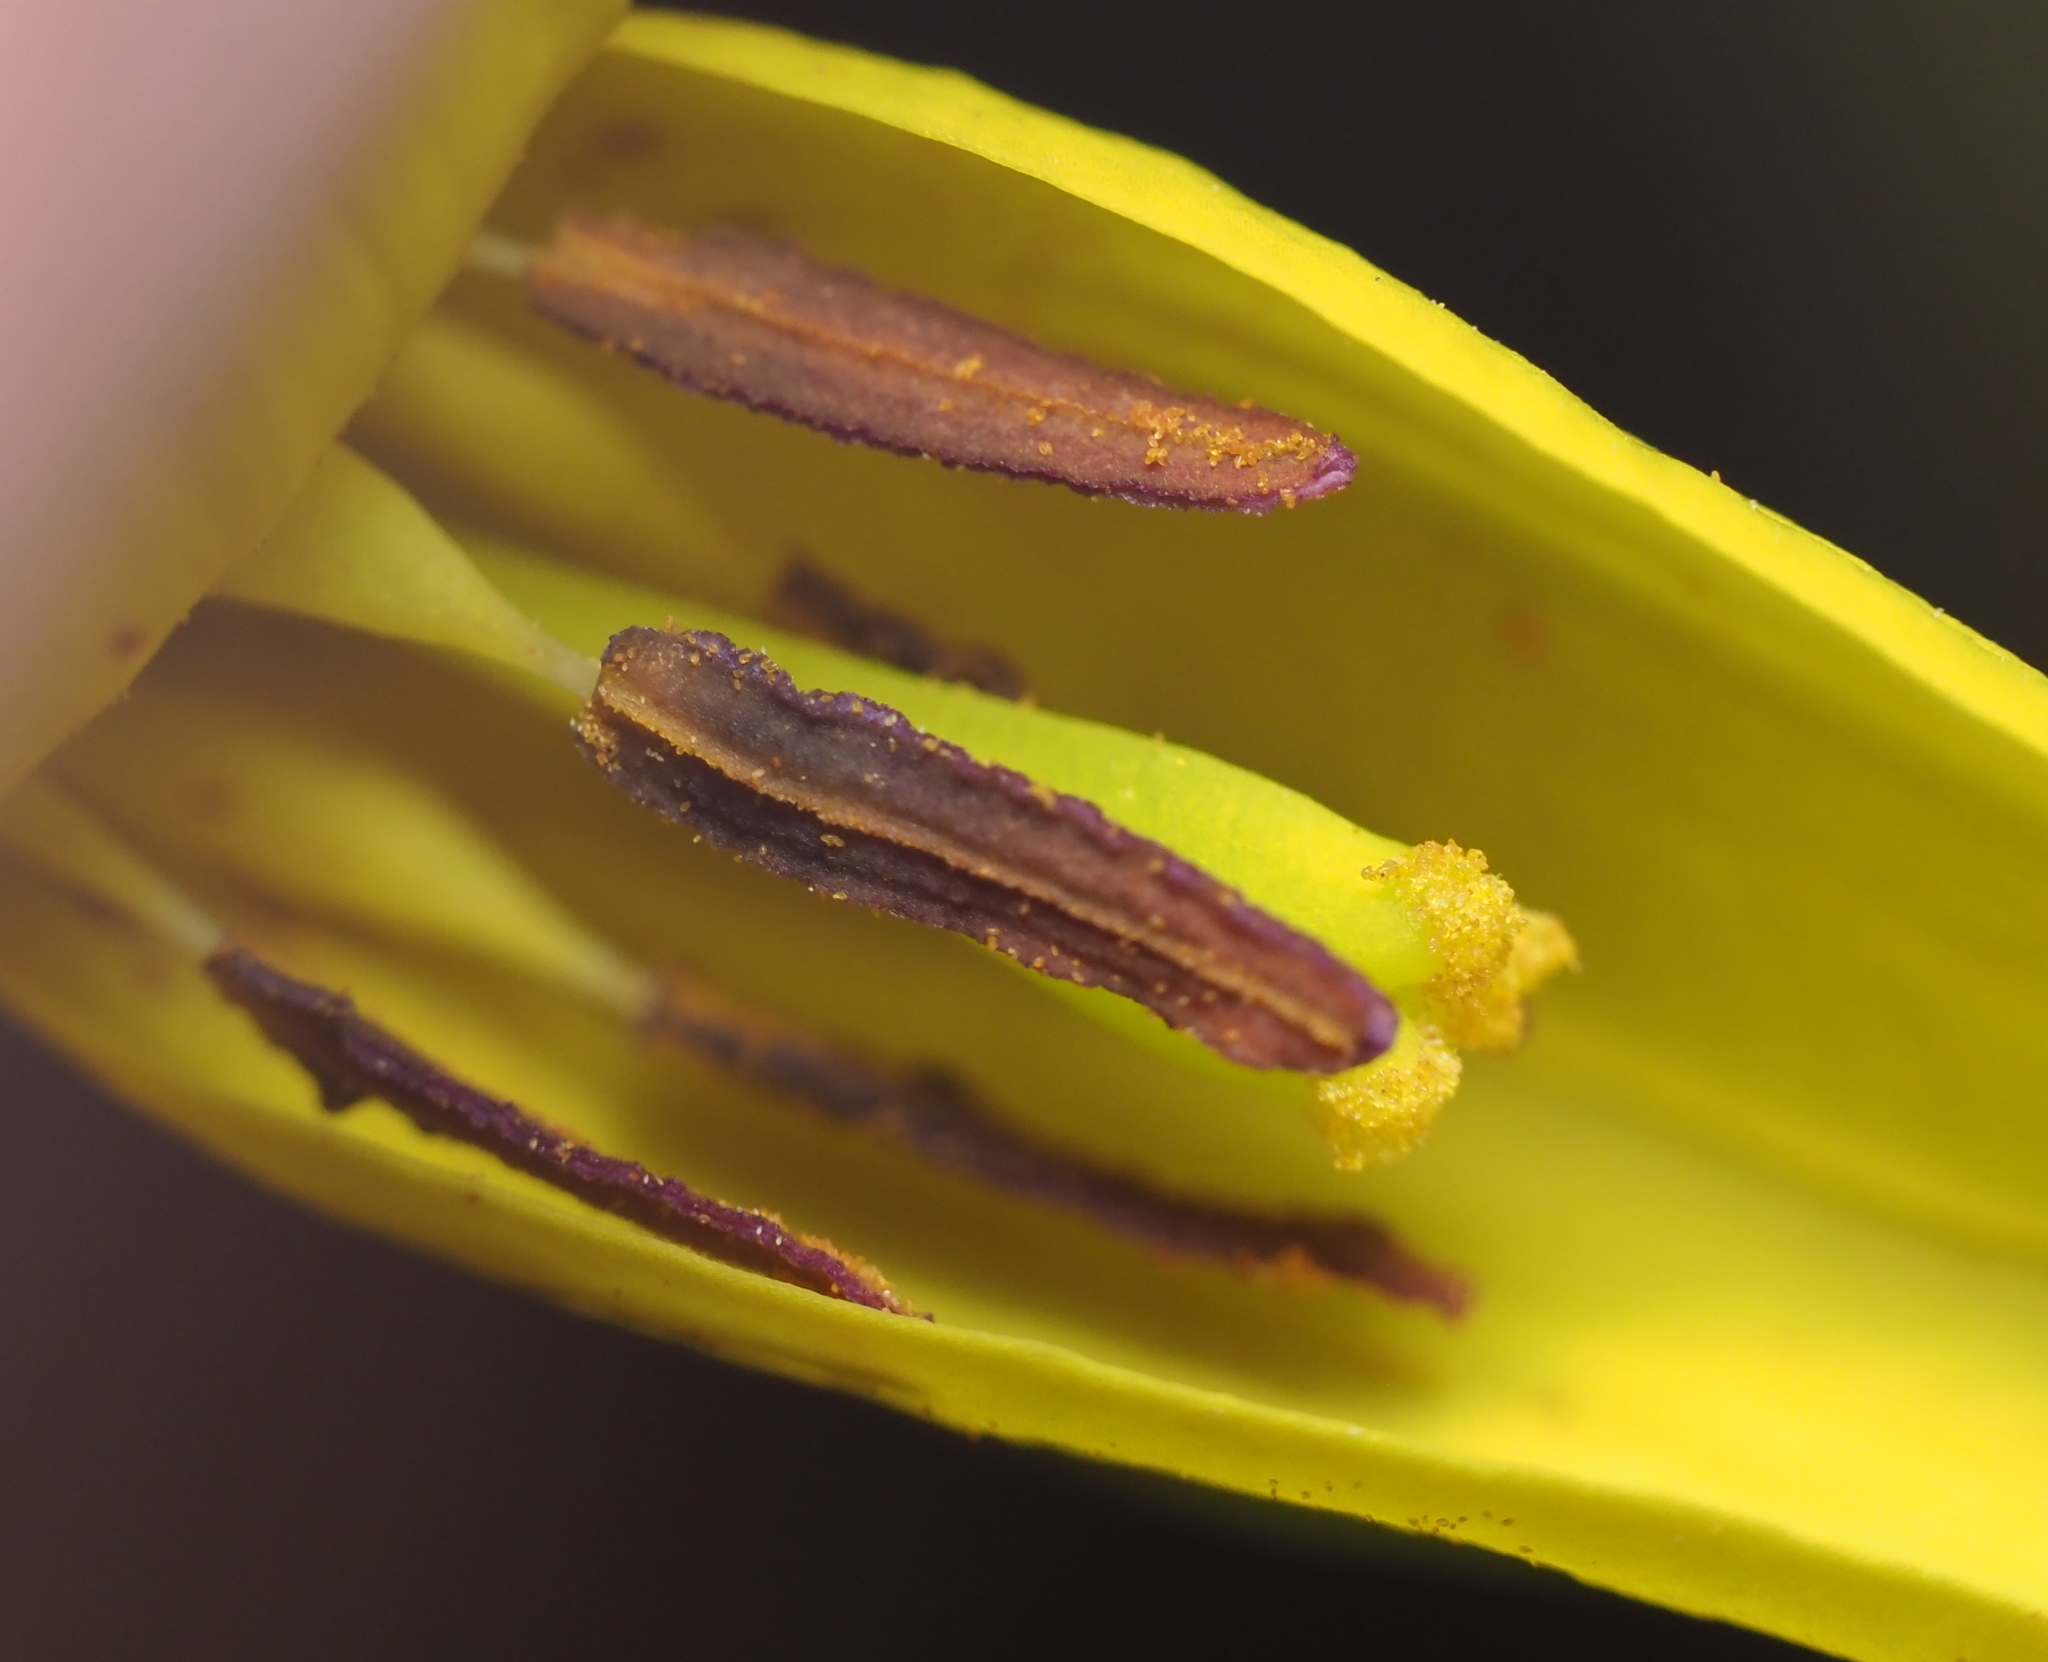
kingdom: Plantae
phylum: Tracheophyta
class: Liliopsida
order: Liliales
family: Liliaceae
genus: Erythronium
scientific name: Erythronium americanum
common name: Yellow adder's-tongue
